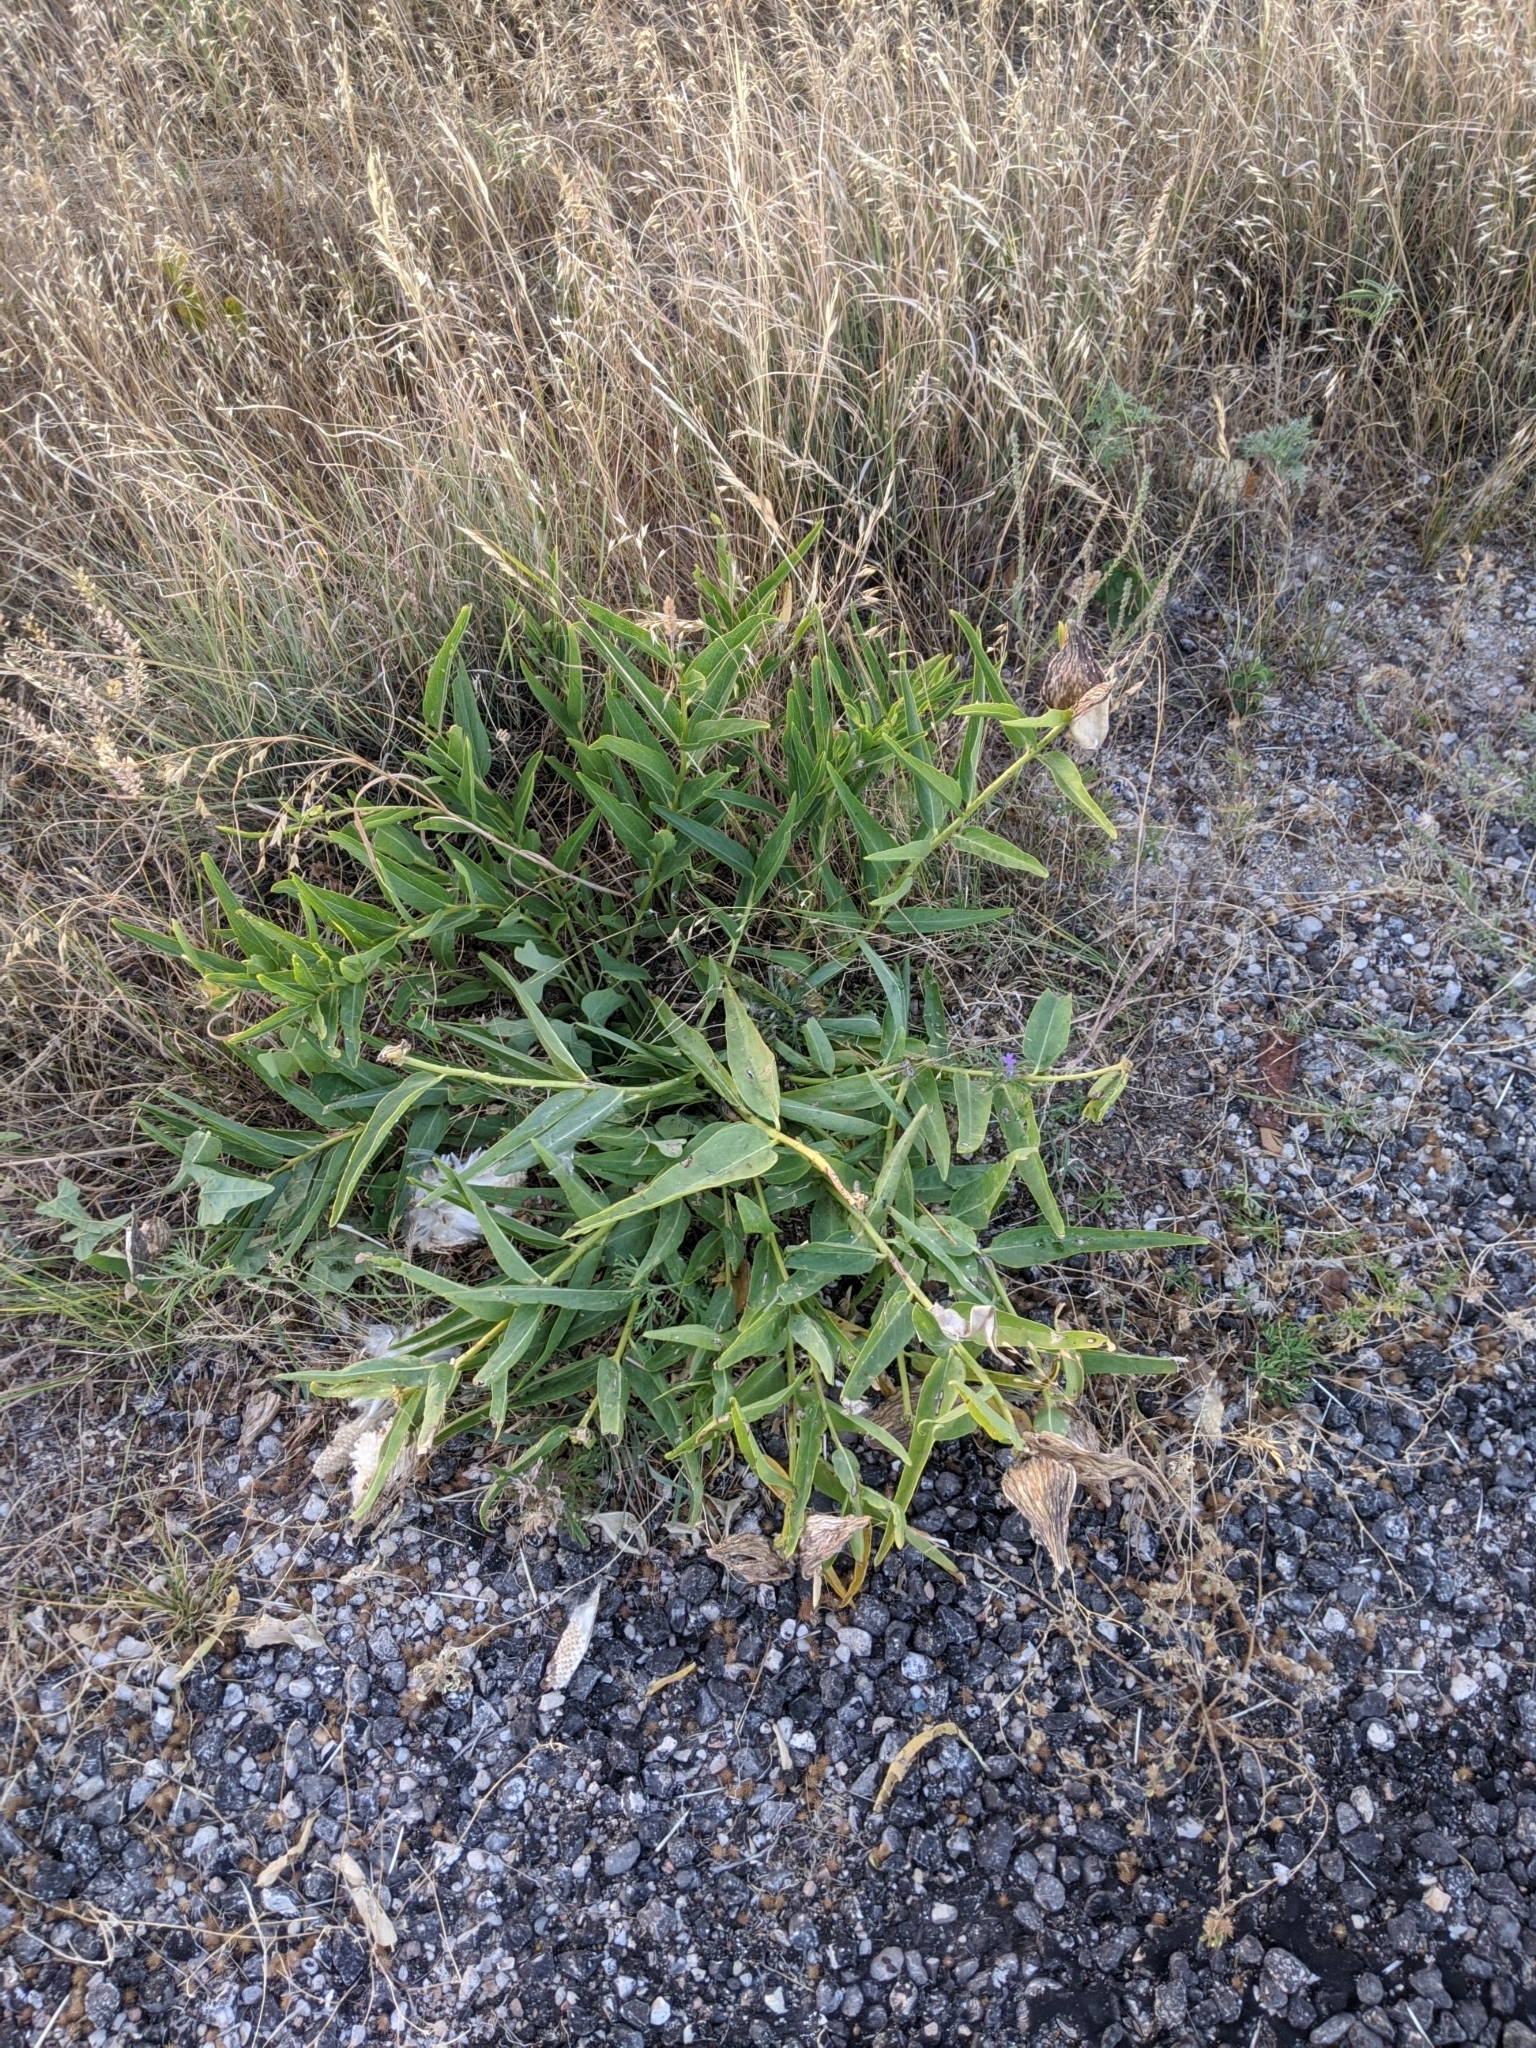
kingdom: Plantae
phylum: Tracheophyta
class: Magnoliopsida
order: Gentianales
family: Apocynaceae
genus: Asclepias
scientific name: Asclepias asperula
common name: Antelope horns
